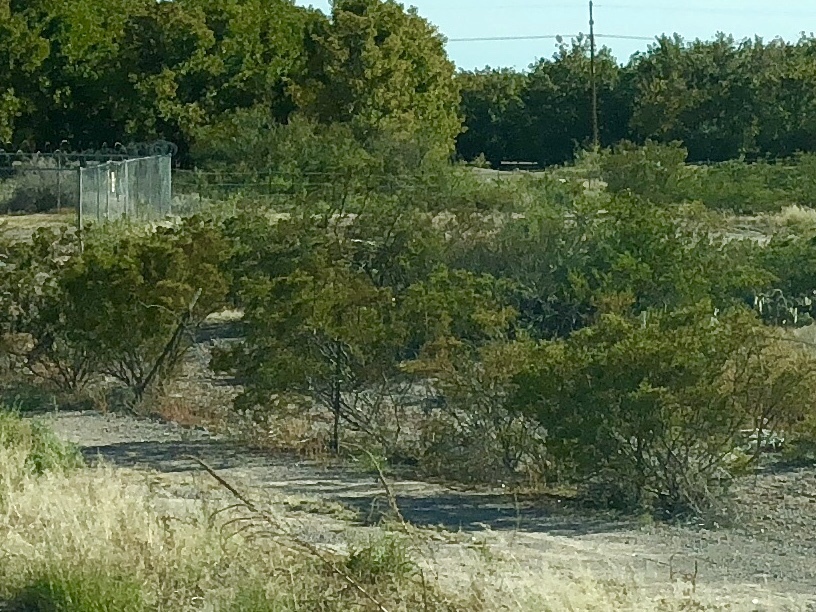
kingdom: Plantae
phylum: Tracheophyta
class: Magnoliopsida
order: Zygophyllales
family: Zygophyllaceae
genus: Larrea
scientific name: Larrea tridentata
